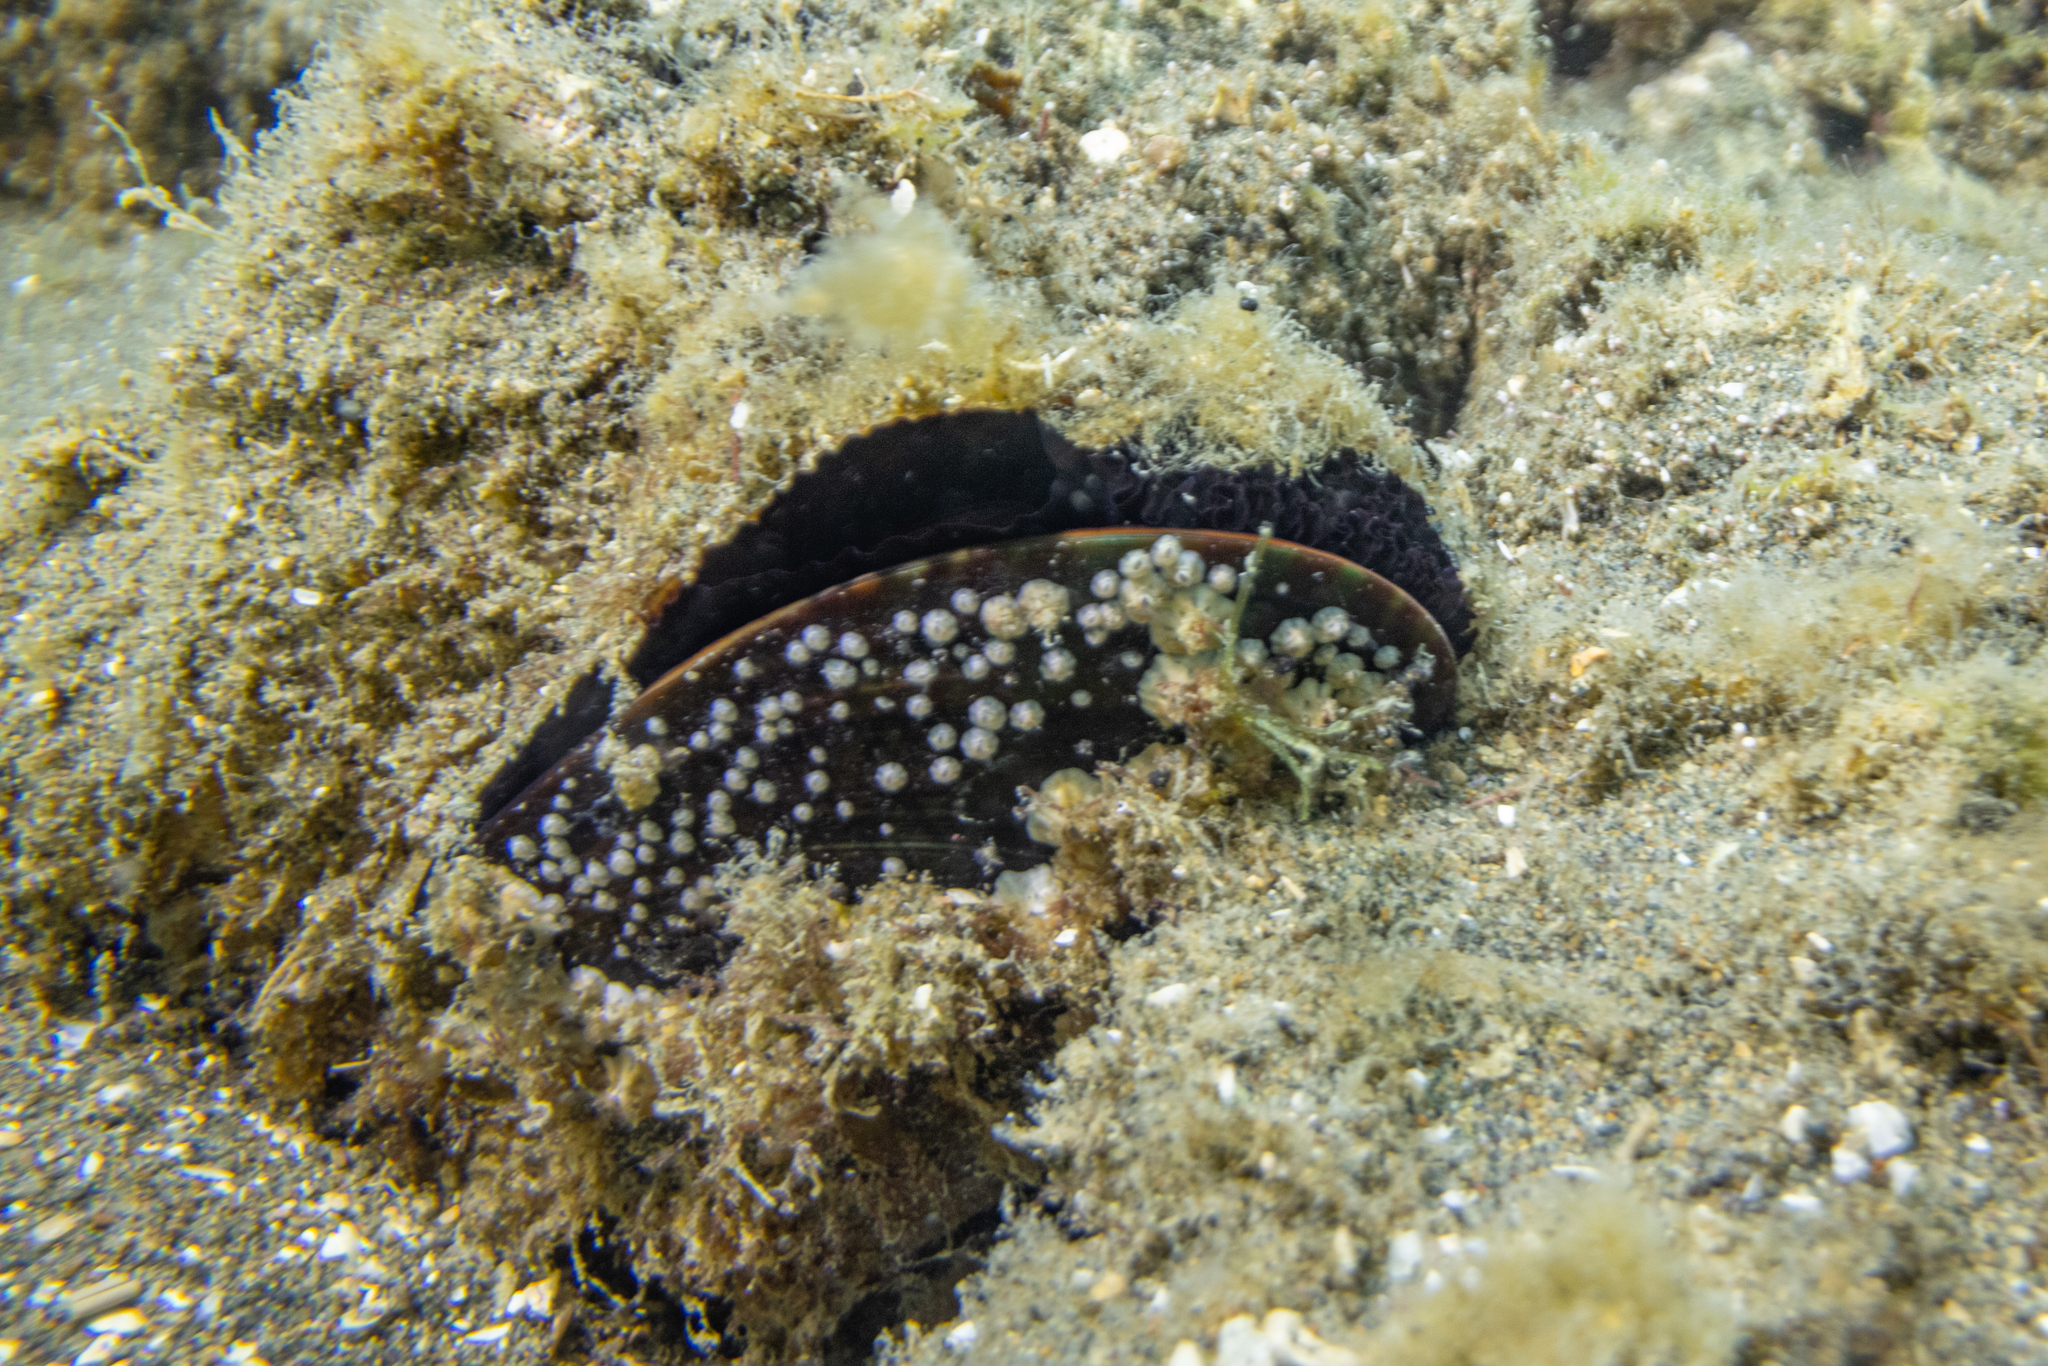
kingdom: Animalia
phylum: Mollusca
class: Bivalvia
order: Mytilida
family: Mytilidae
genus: Perna
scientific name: Perna canaliculus
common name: New zealand greenshelltm
